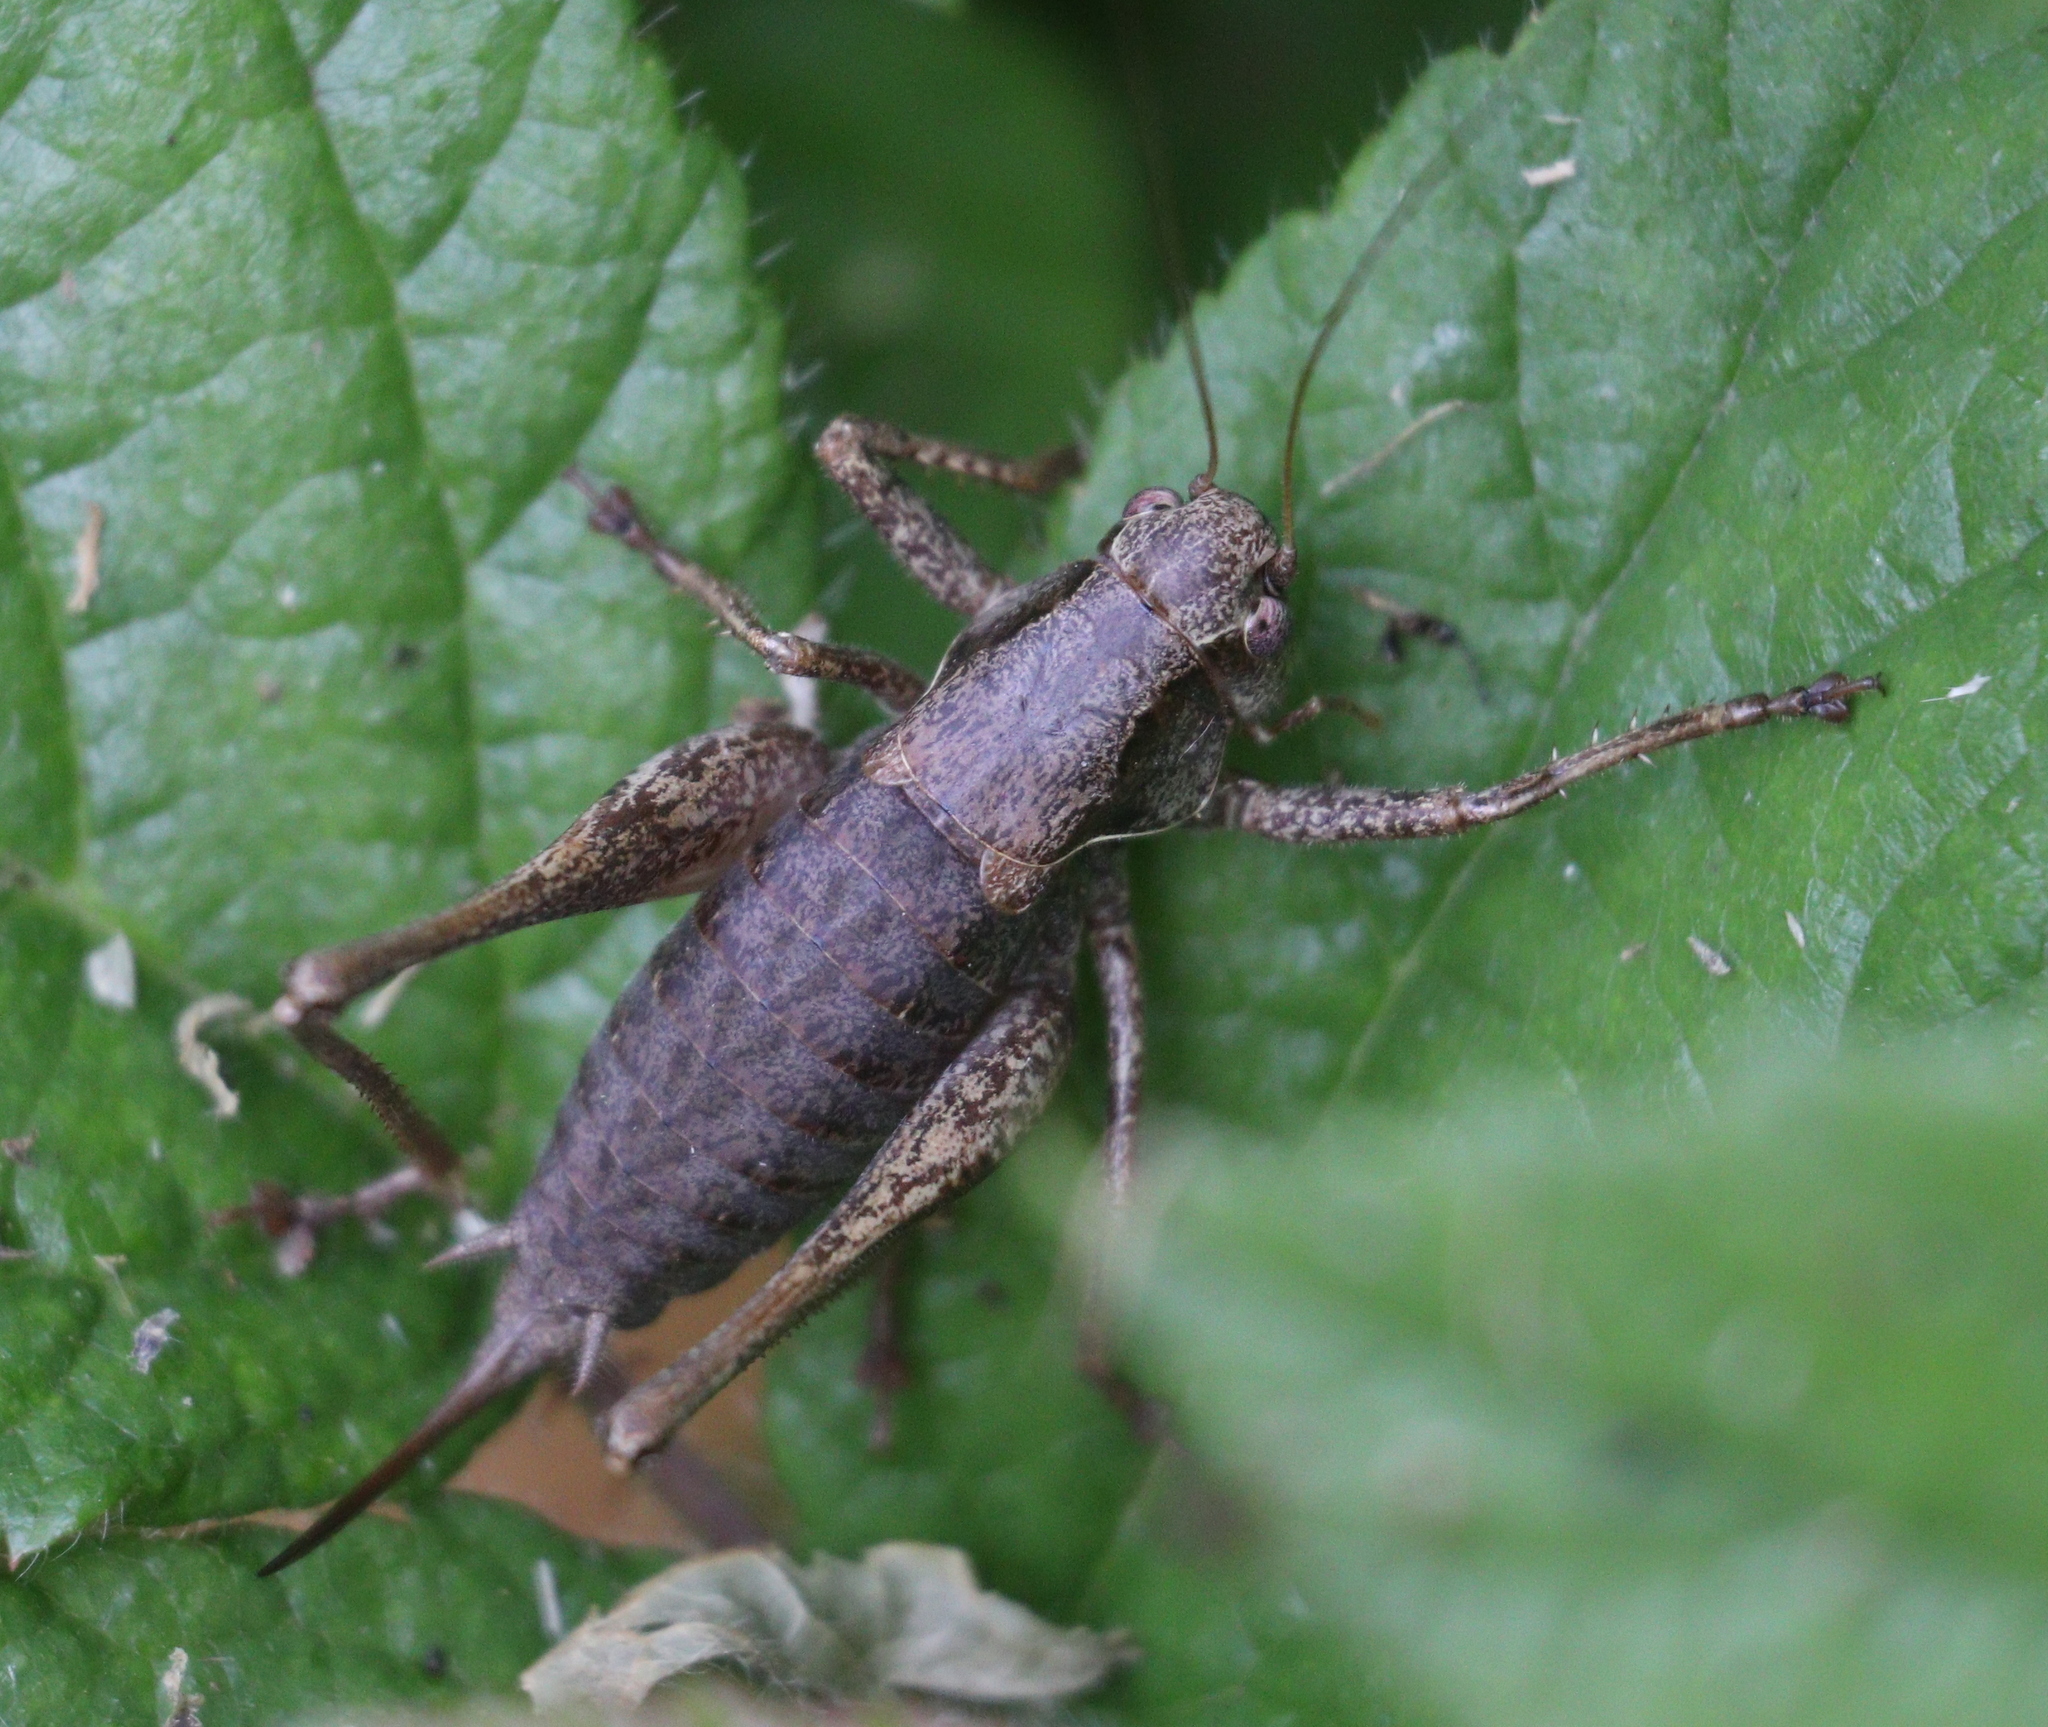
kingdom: Animalia
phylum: Arthropoda
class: Insecta
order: Orthoptera
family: Tettigoniidae
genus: Pholidoptera
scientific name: Pholidoptera griseoaptera
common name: Dark bush-cricket
